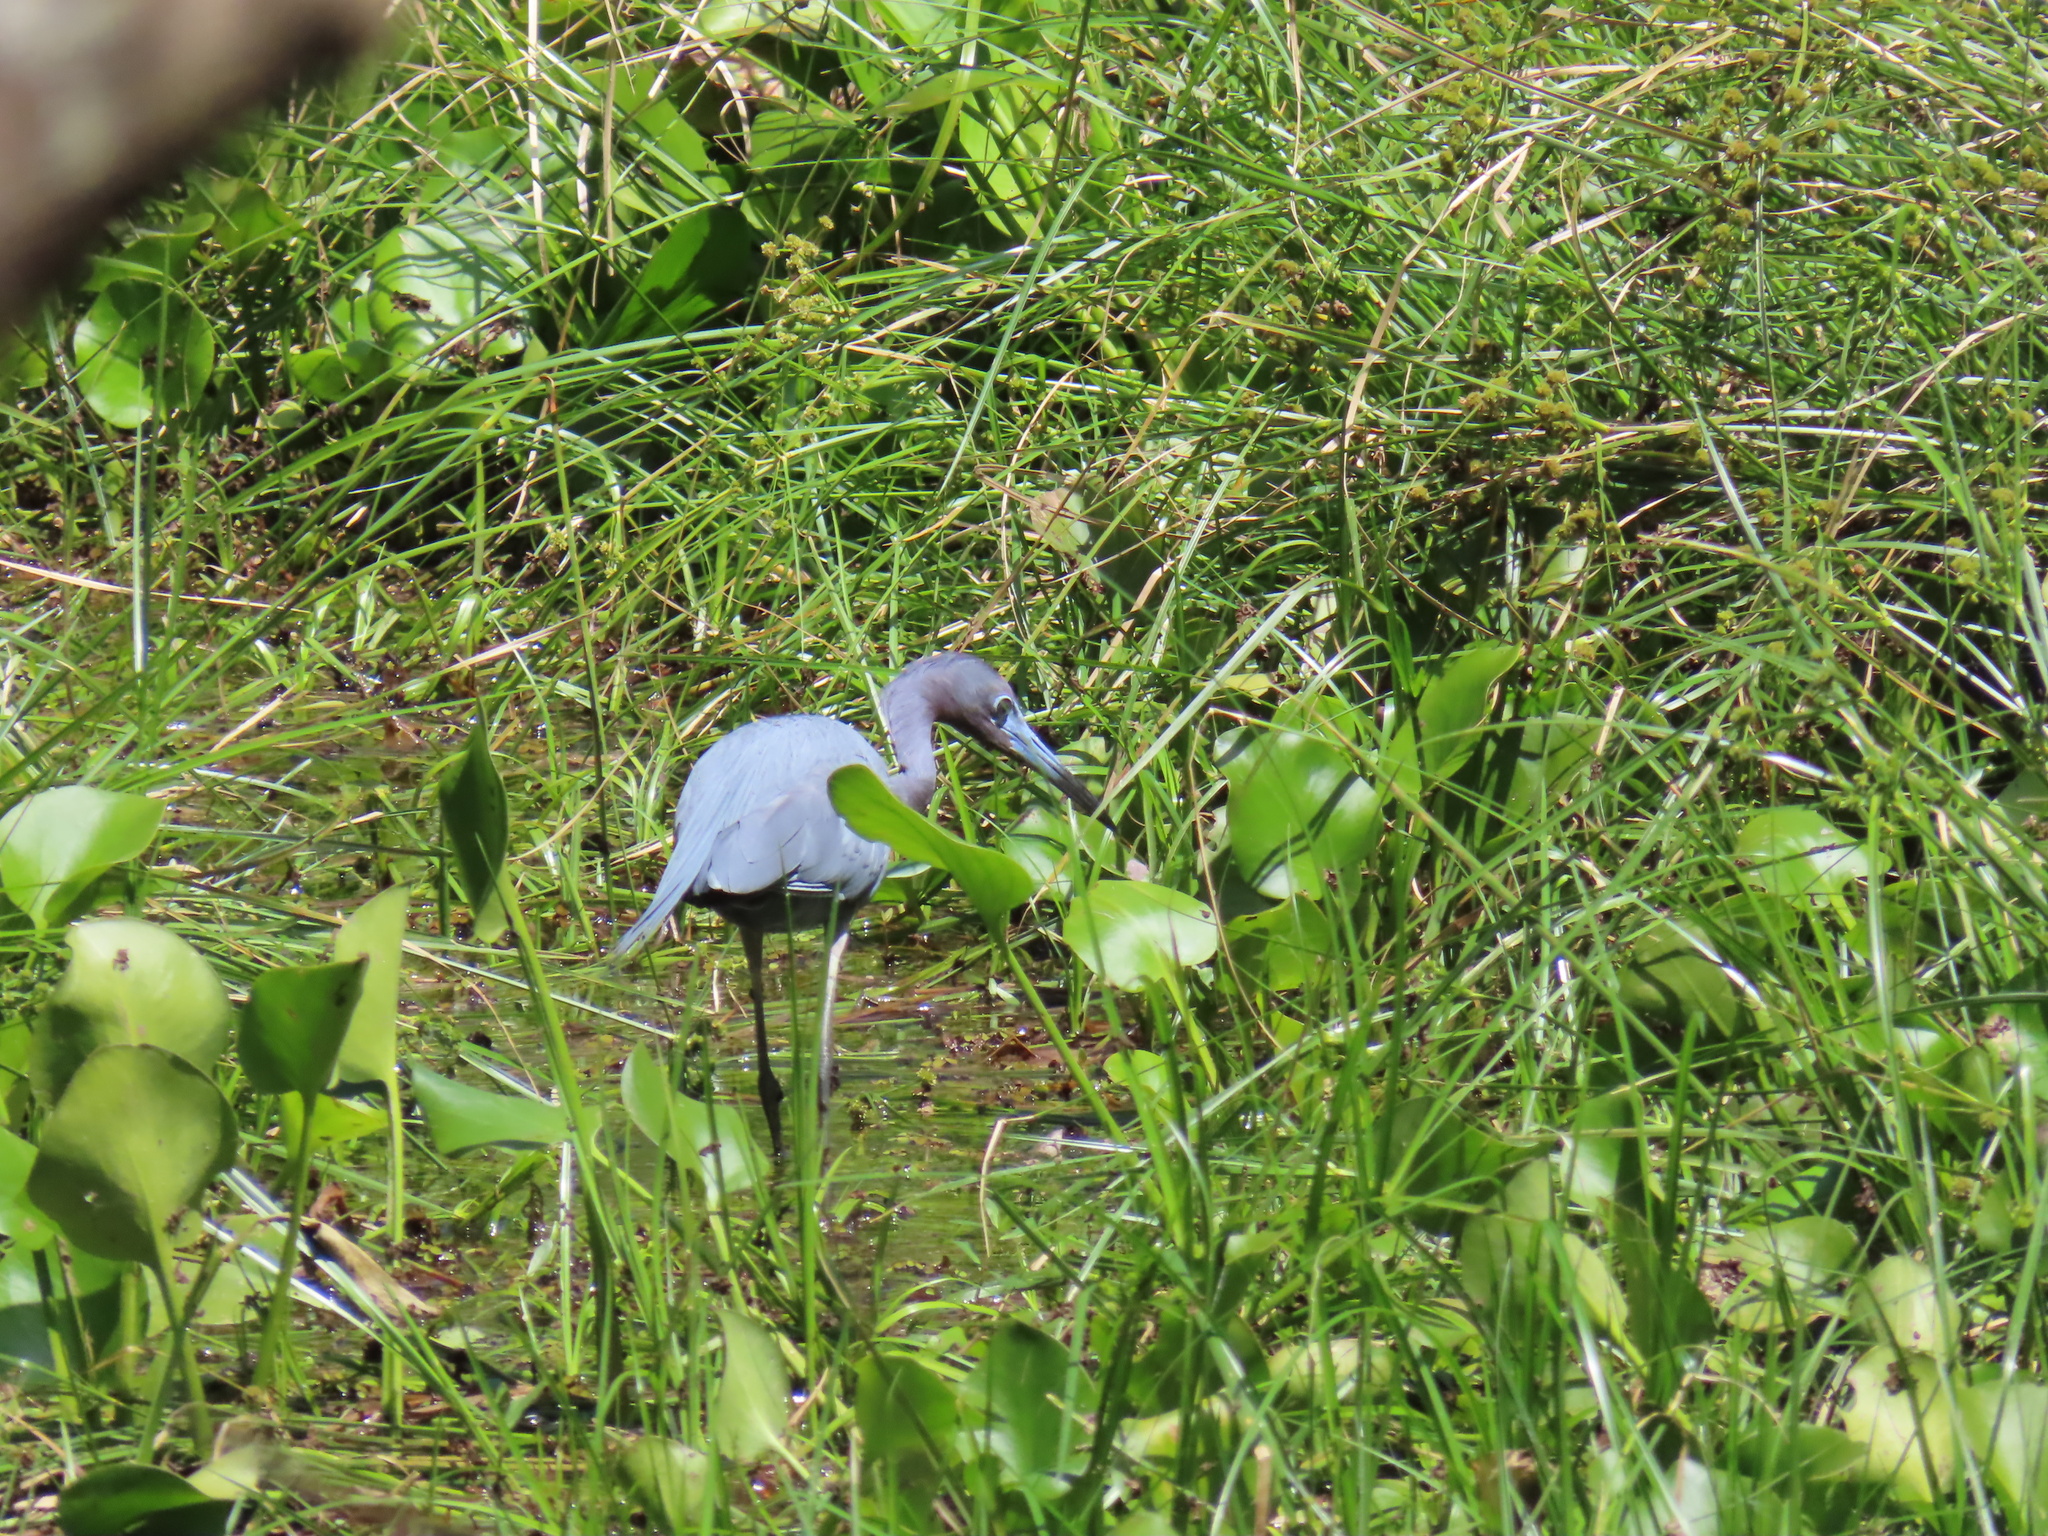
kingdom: Animalia
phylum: Chordata
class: Aves
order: Pelecaniformes
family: Ardeidae
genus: Egretta
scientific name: Egretta caerulea
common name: Little blue heron
